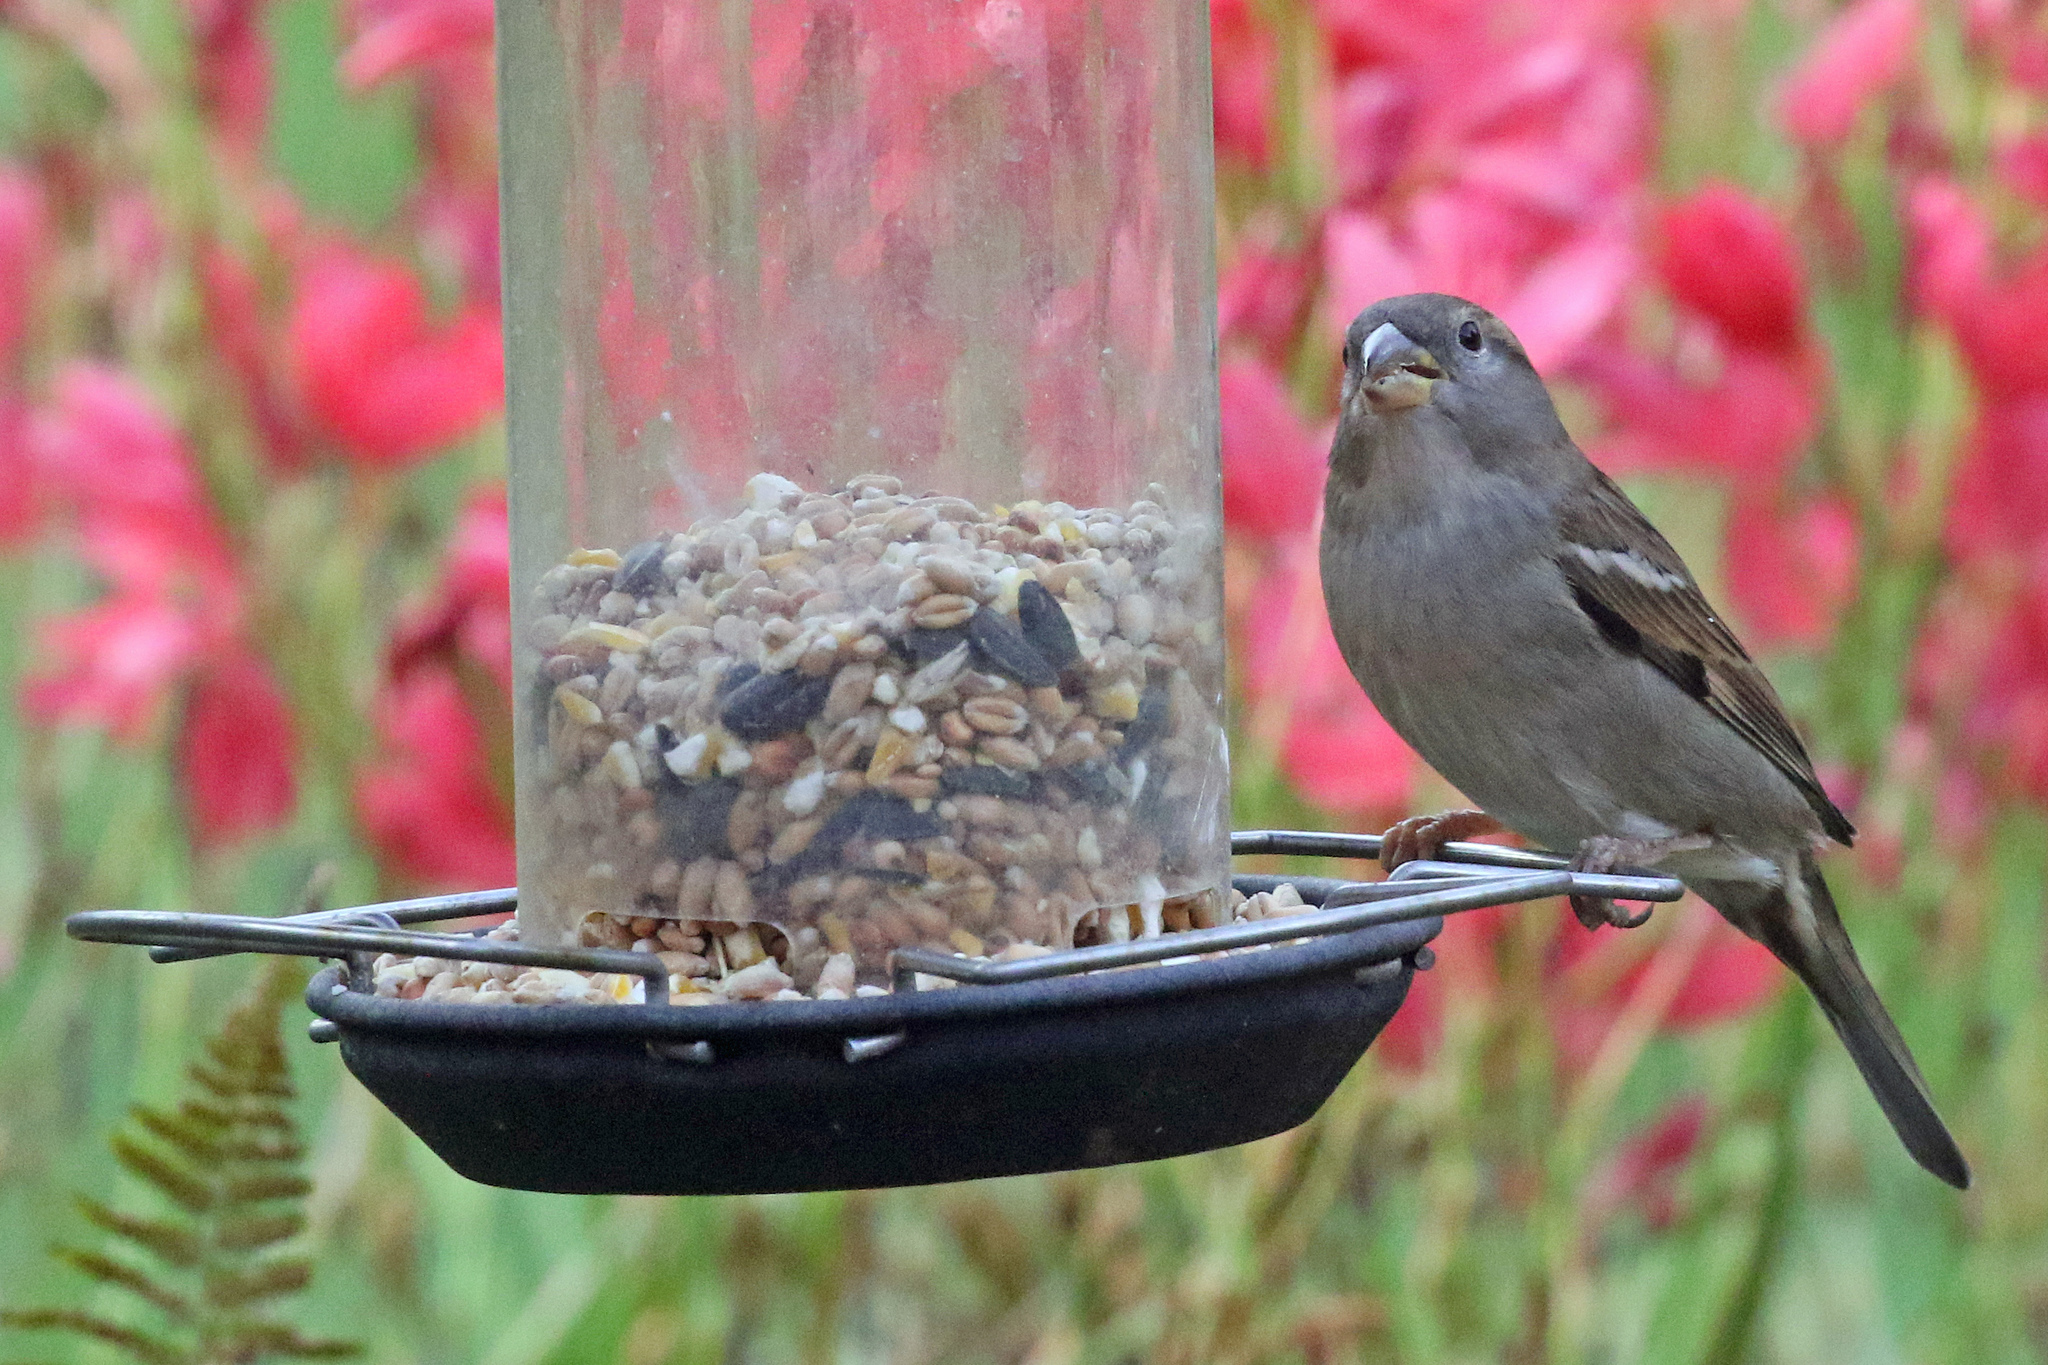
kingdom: Animalia
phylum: Chordata
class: Aves
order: Passeriformes
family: Passeridae
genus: Passer
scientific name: Passer domesticus
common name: House sparrow
